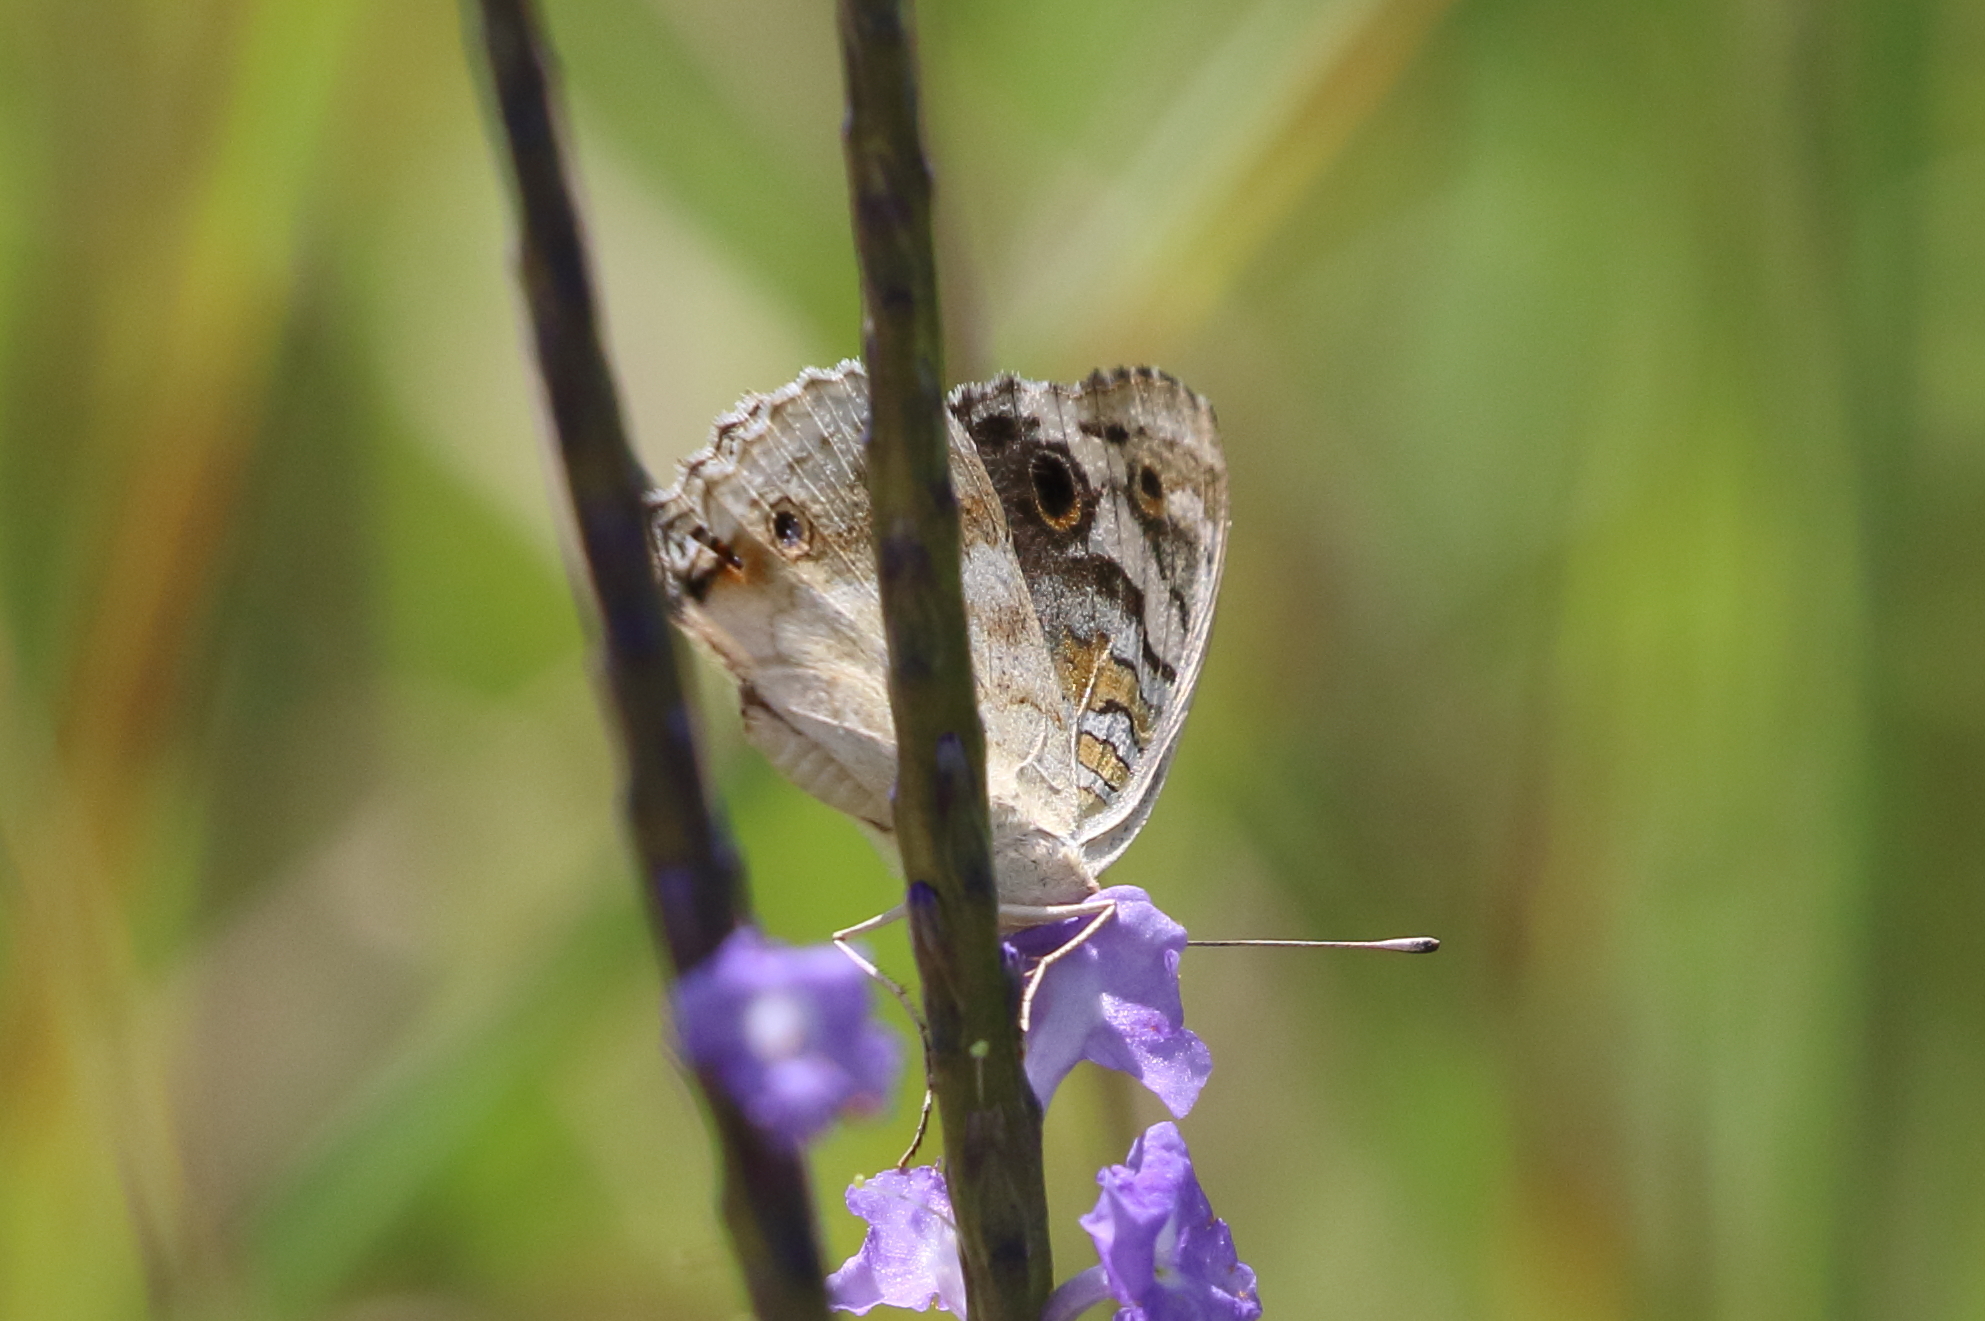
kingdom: Animalia
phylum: Arthropoda
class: Insecta
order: Lepidoptera
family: Nymphalidae
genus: Junonia
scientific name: Junonia orithya
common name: Blue pansy
